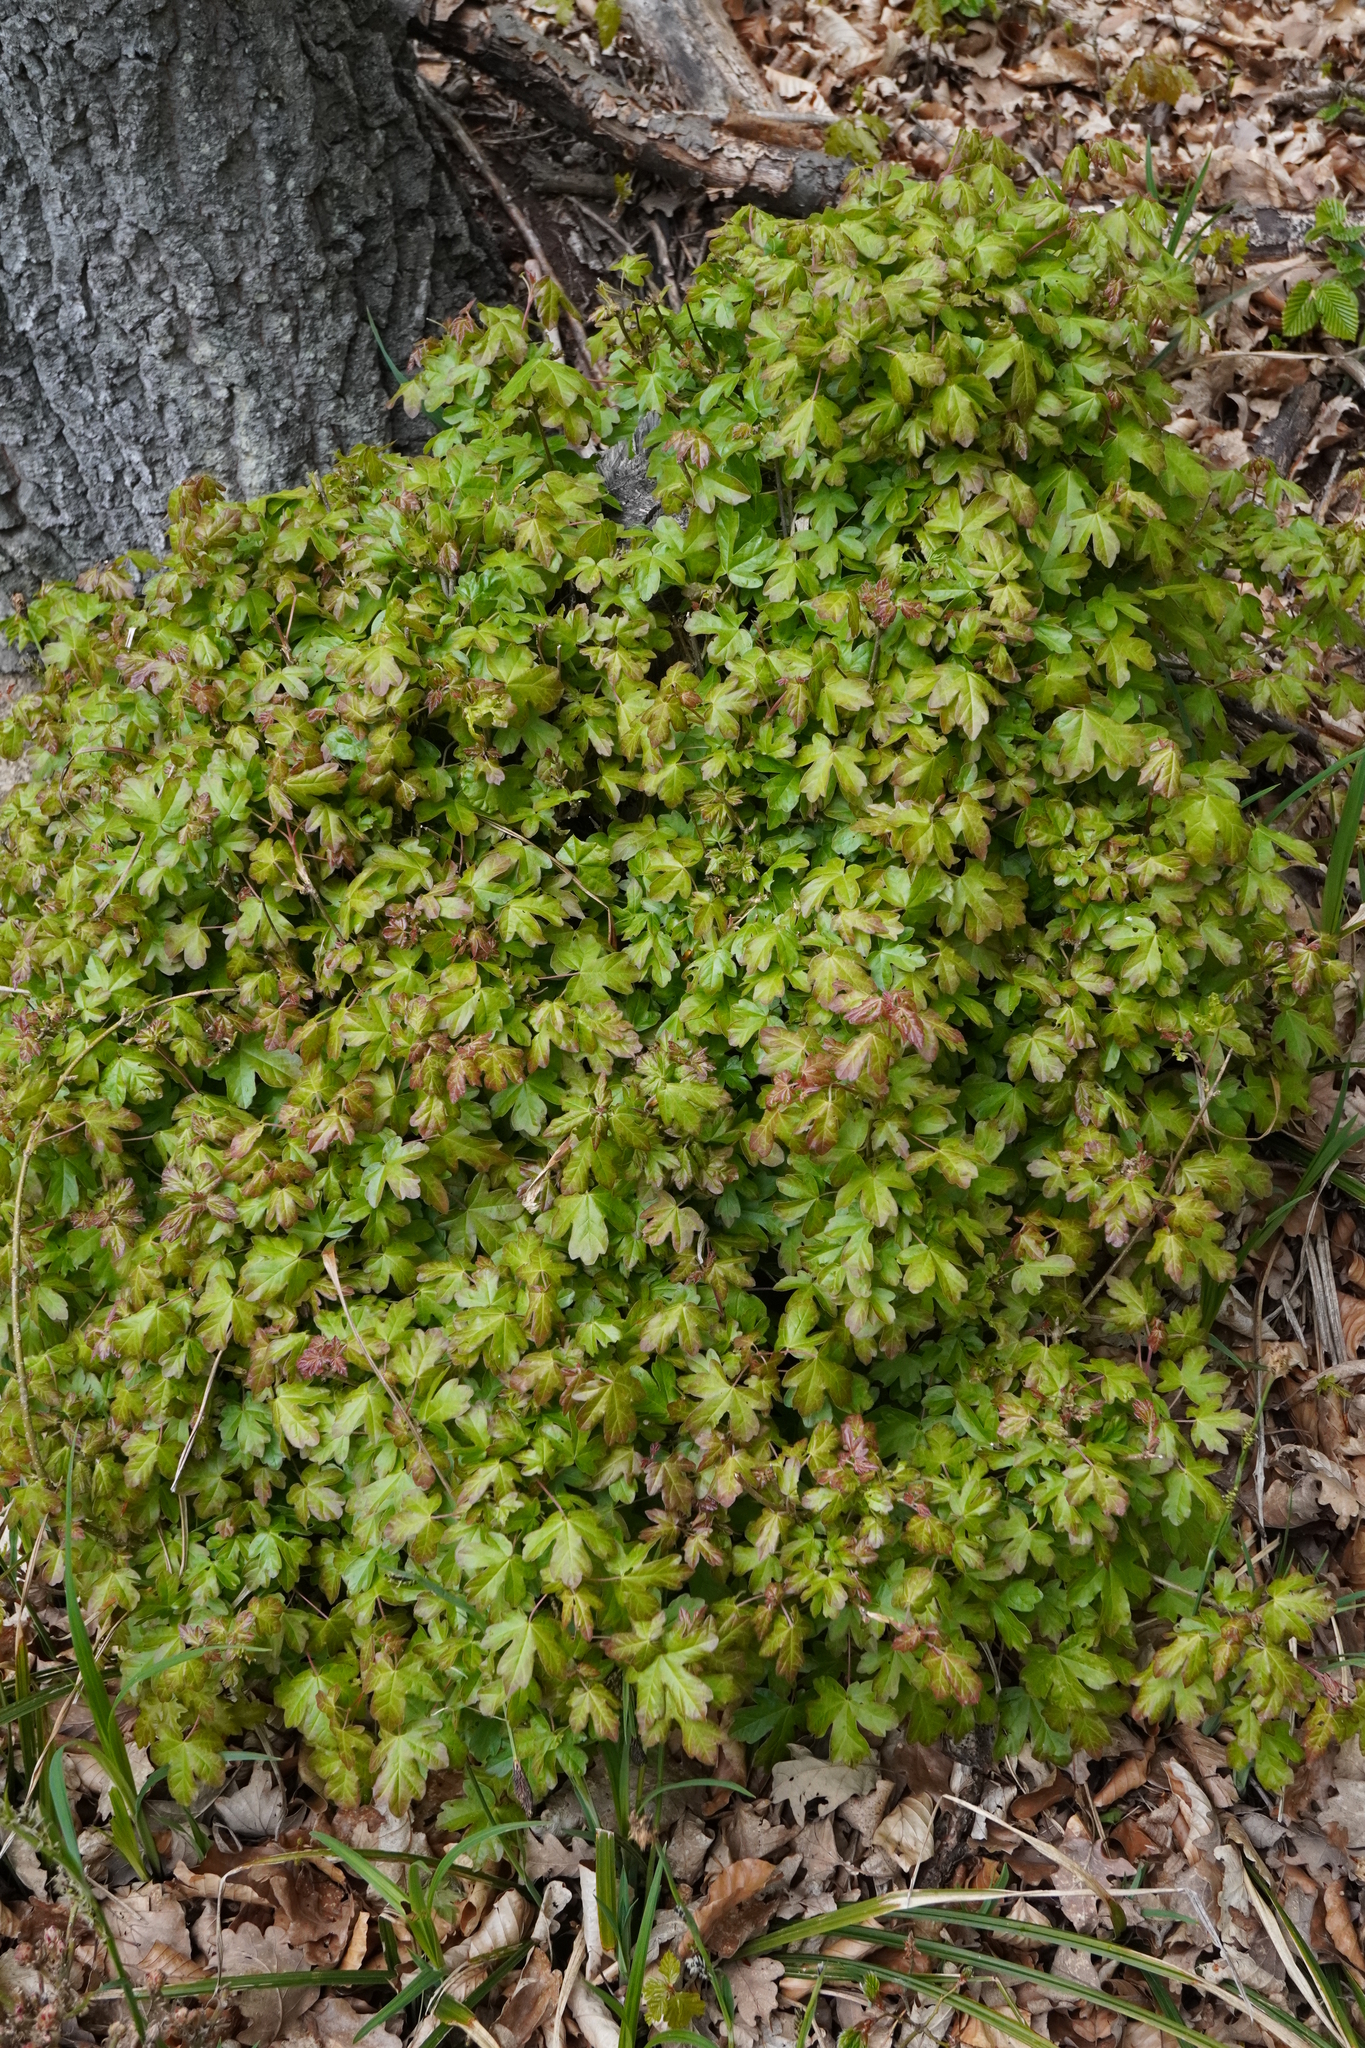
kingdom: Plantae
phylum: Tracheophyta
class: Magnoliopsida
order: Sapindales
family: Sapindaceae
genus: Acer
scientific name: Acer campestre
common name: Field maple
